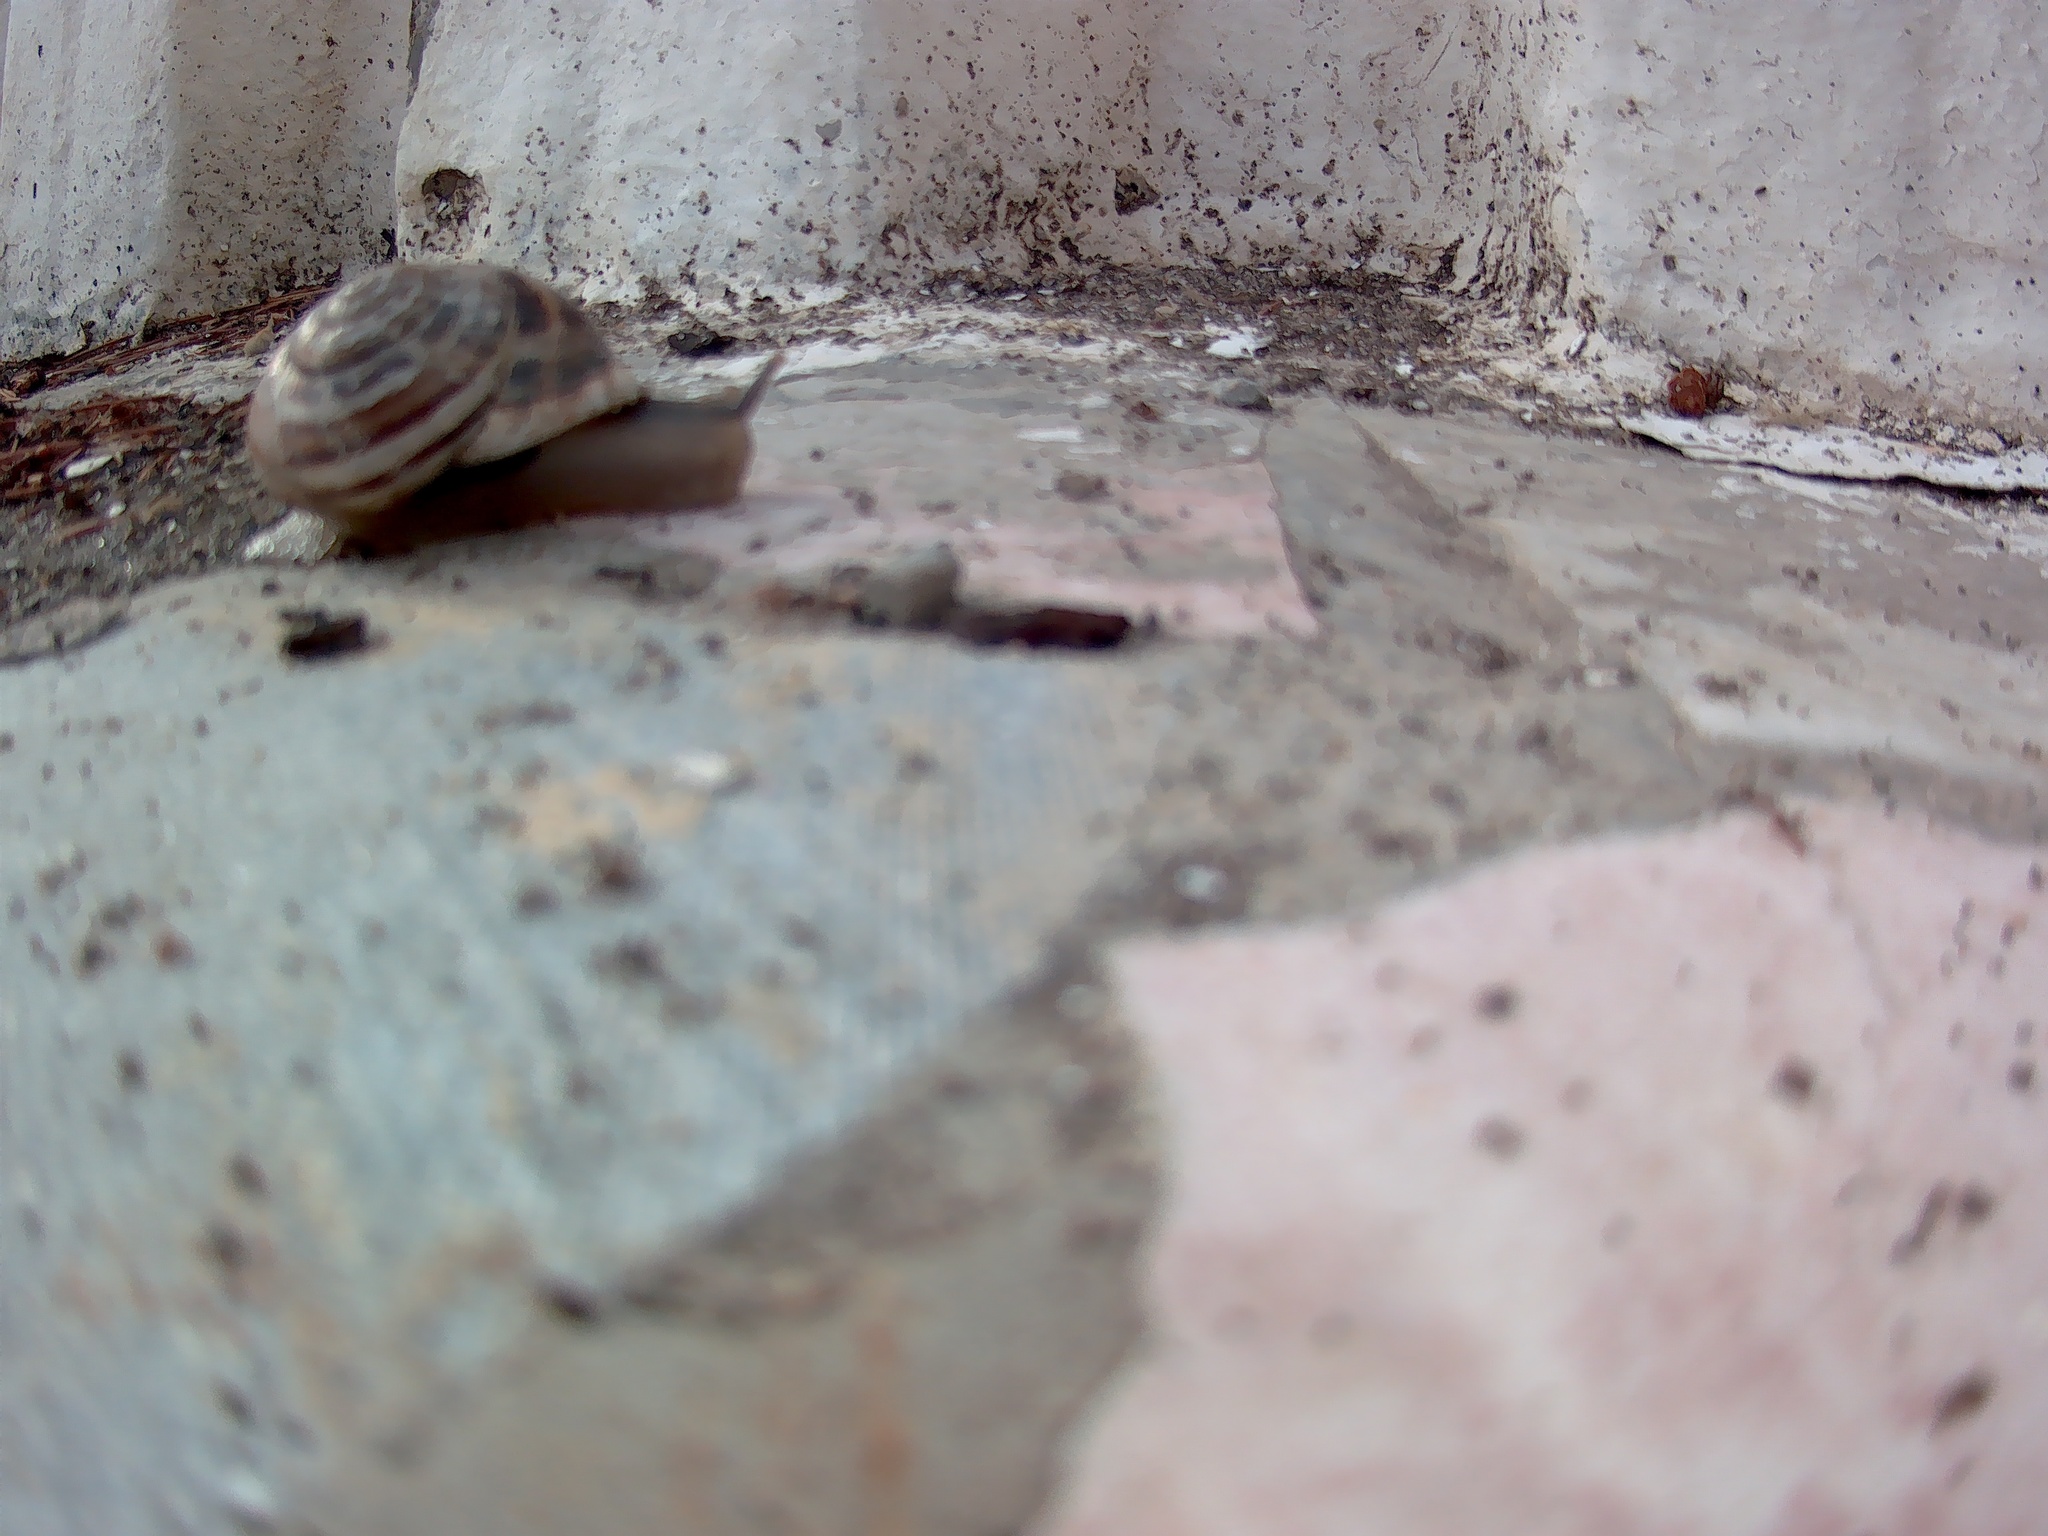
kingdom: Animalia
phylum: Mollusca
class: Gastropoda
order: Stylommatophora
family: Helicidae
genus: Eobania
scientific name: Eobania vermiculata
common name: Chocolateband snail
